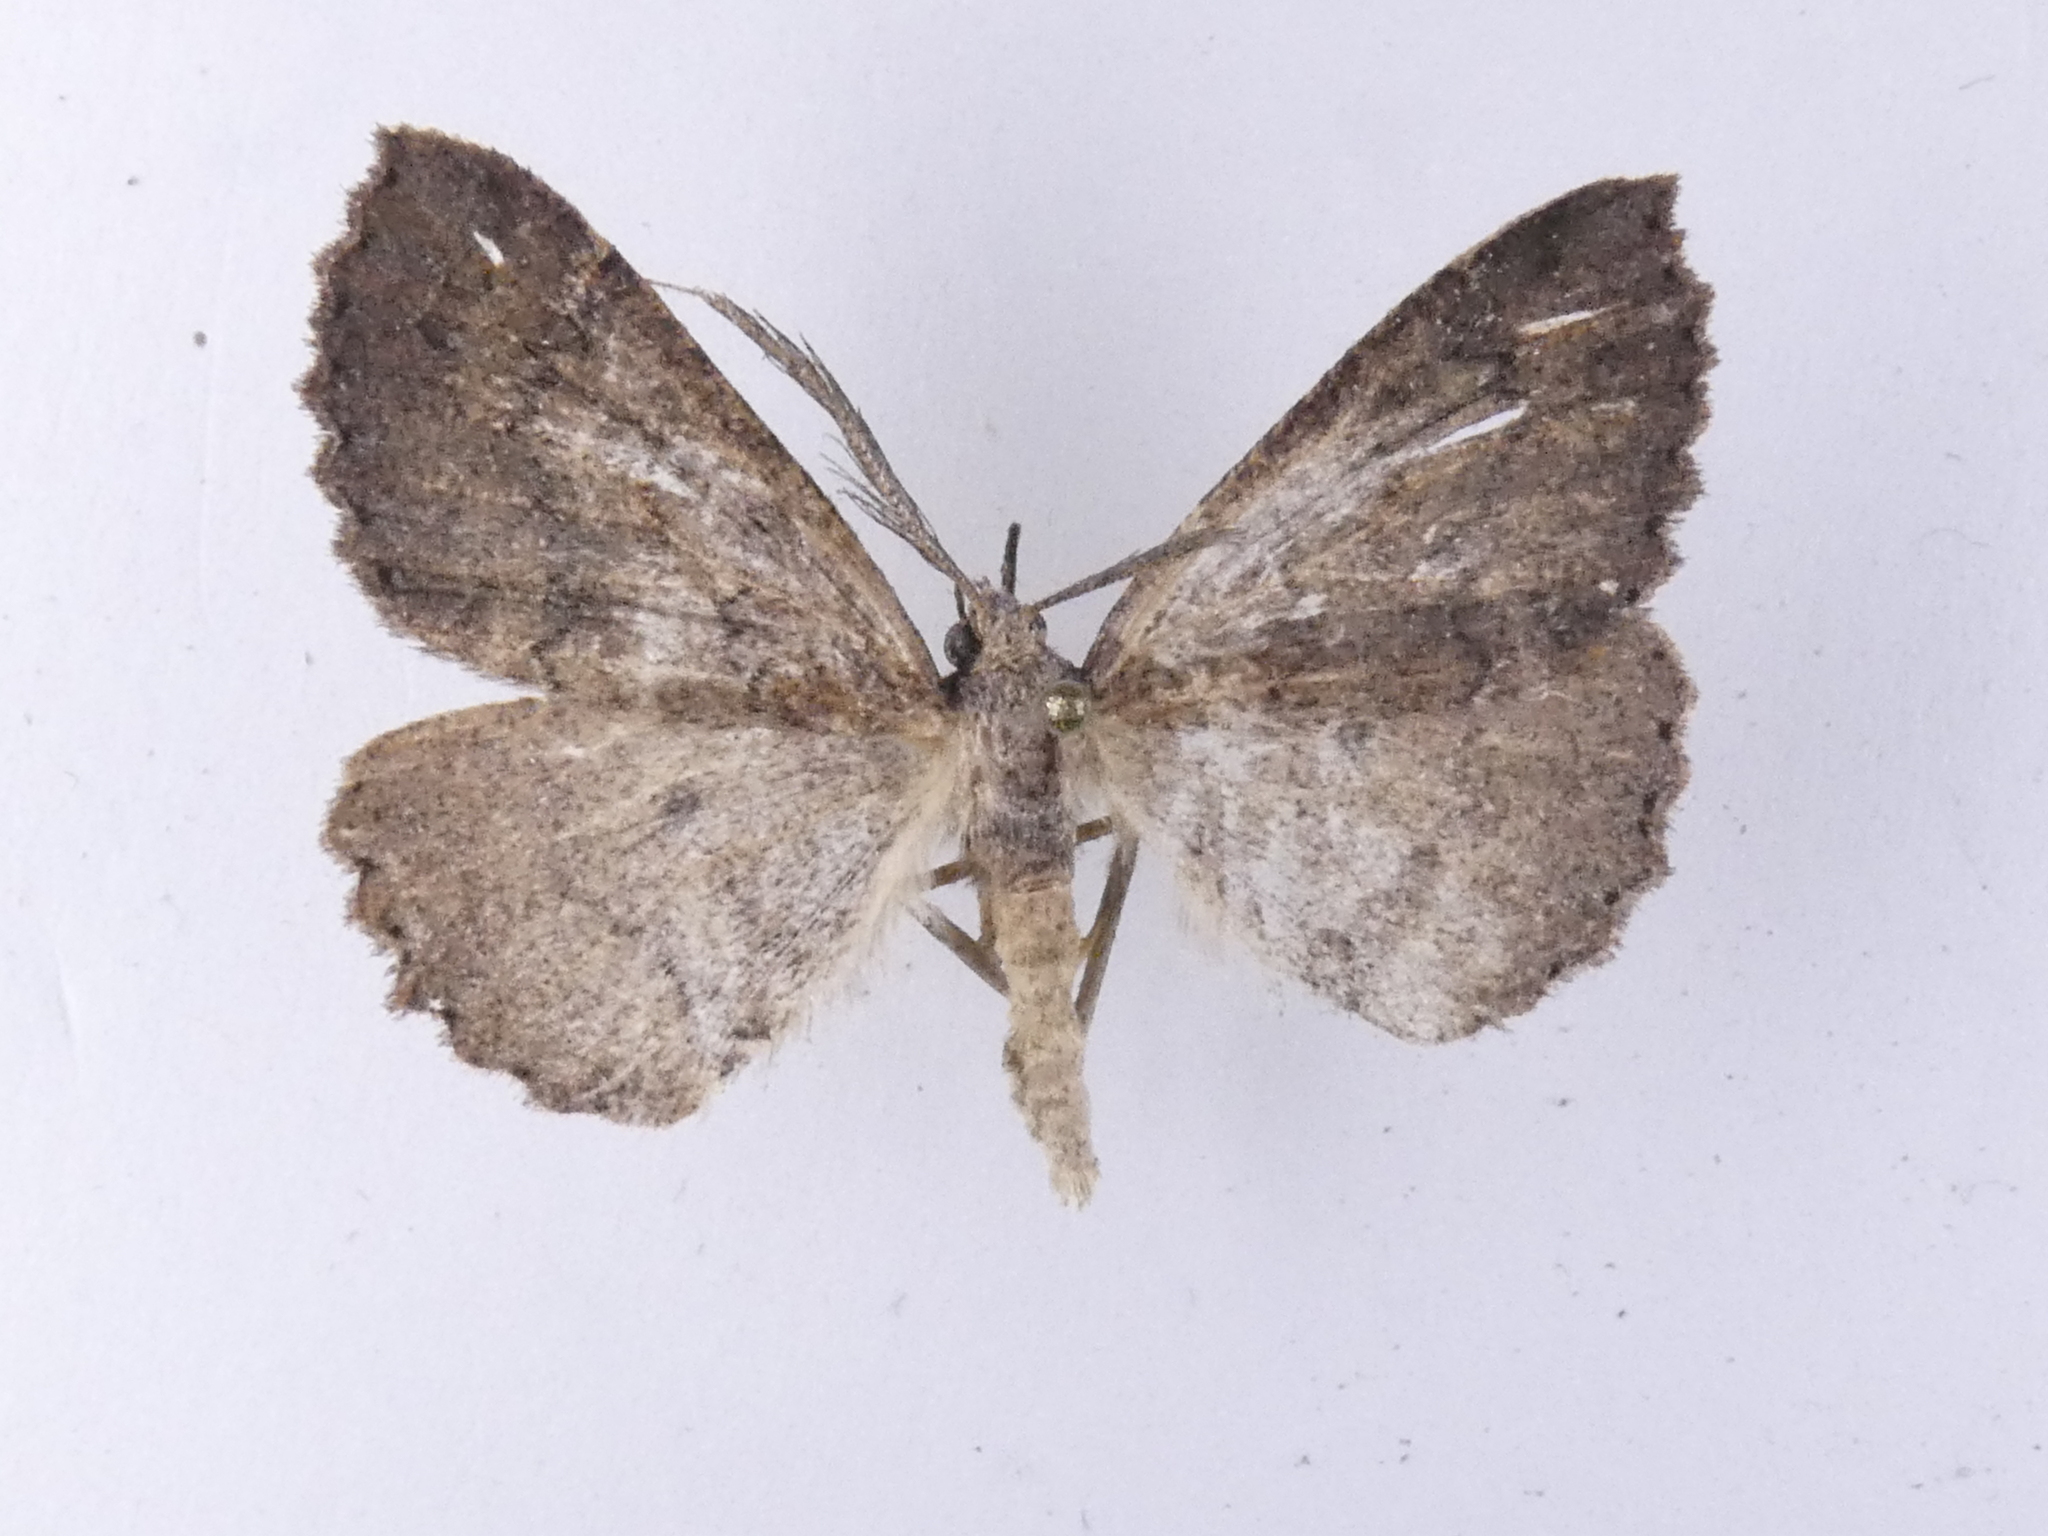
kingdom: Animalia
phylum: Arthropoda
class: Insecta
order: Lepidoptera
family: Geometridae
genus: Cleora
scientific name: Cleora scriptaria
